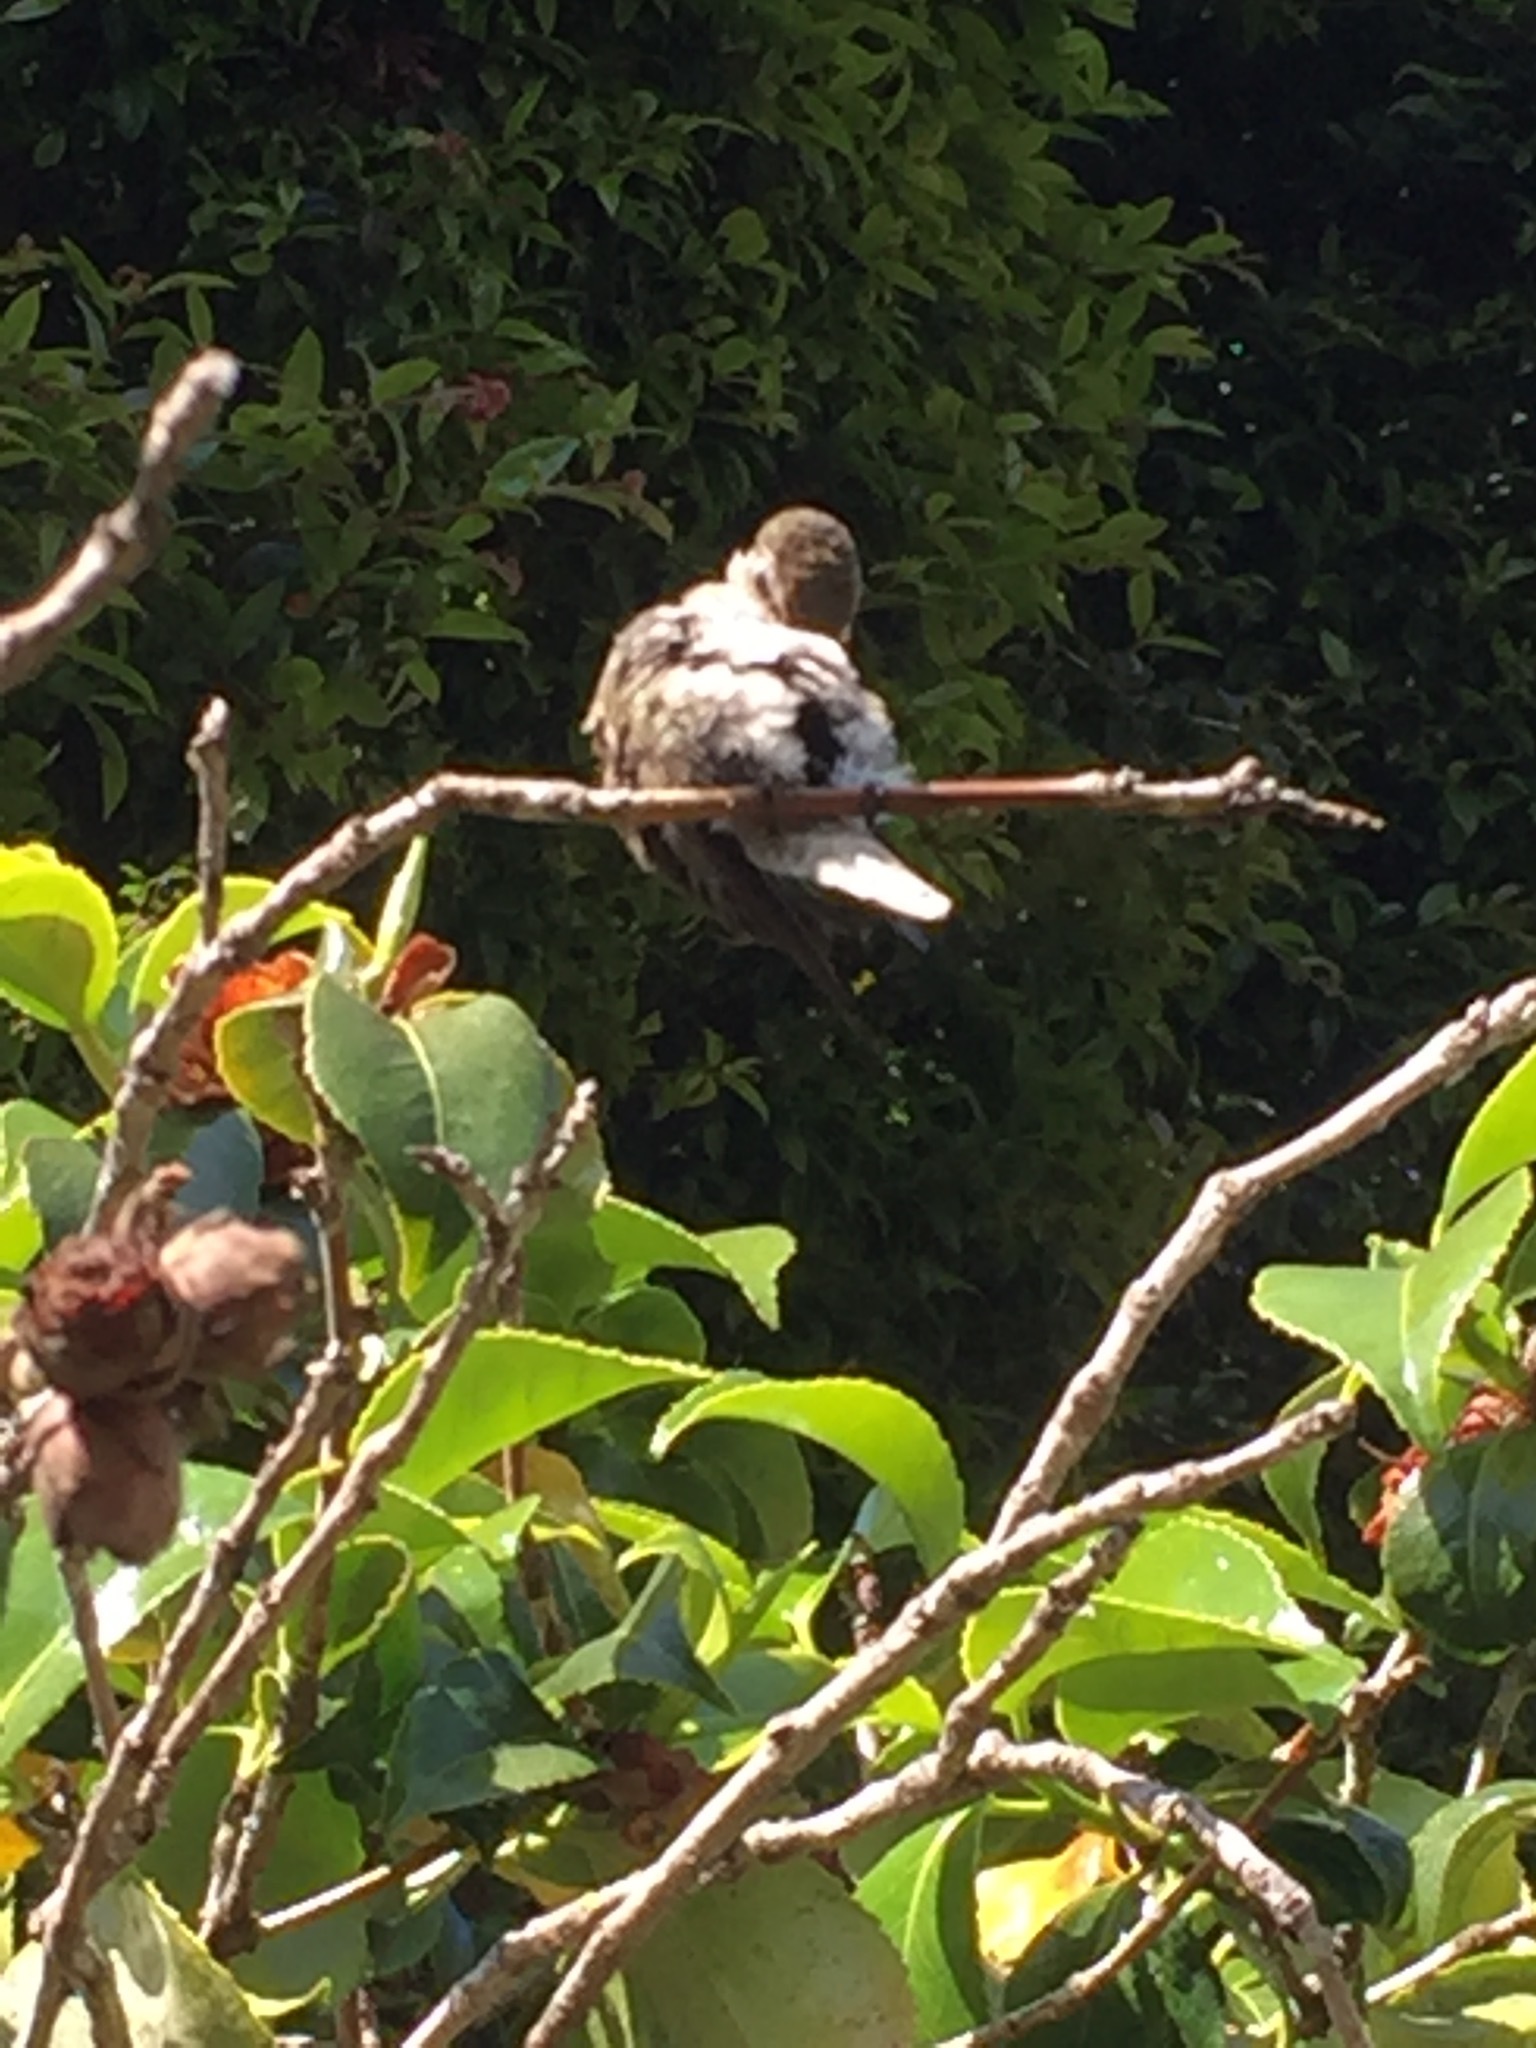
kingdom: Animalia
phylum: Chordata
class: Aves
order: Apodiformes
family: Trochilidae
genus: Calypte
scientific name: Calypte anna
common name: Anna's hummingbird
